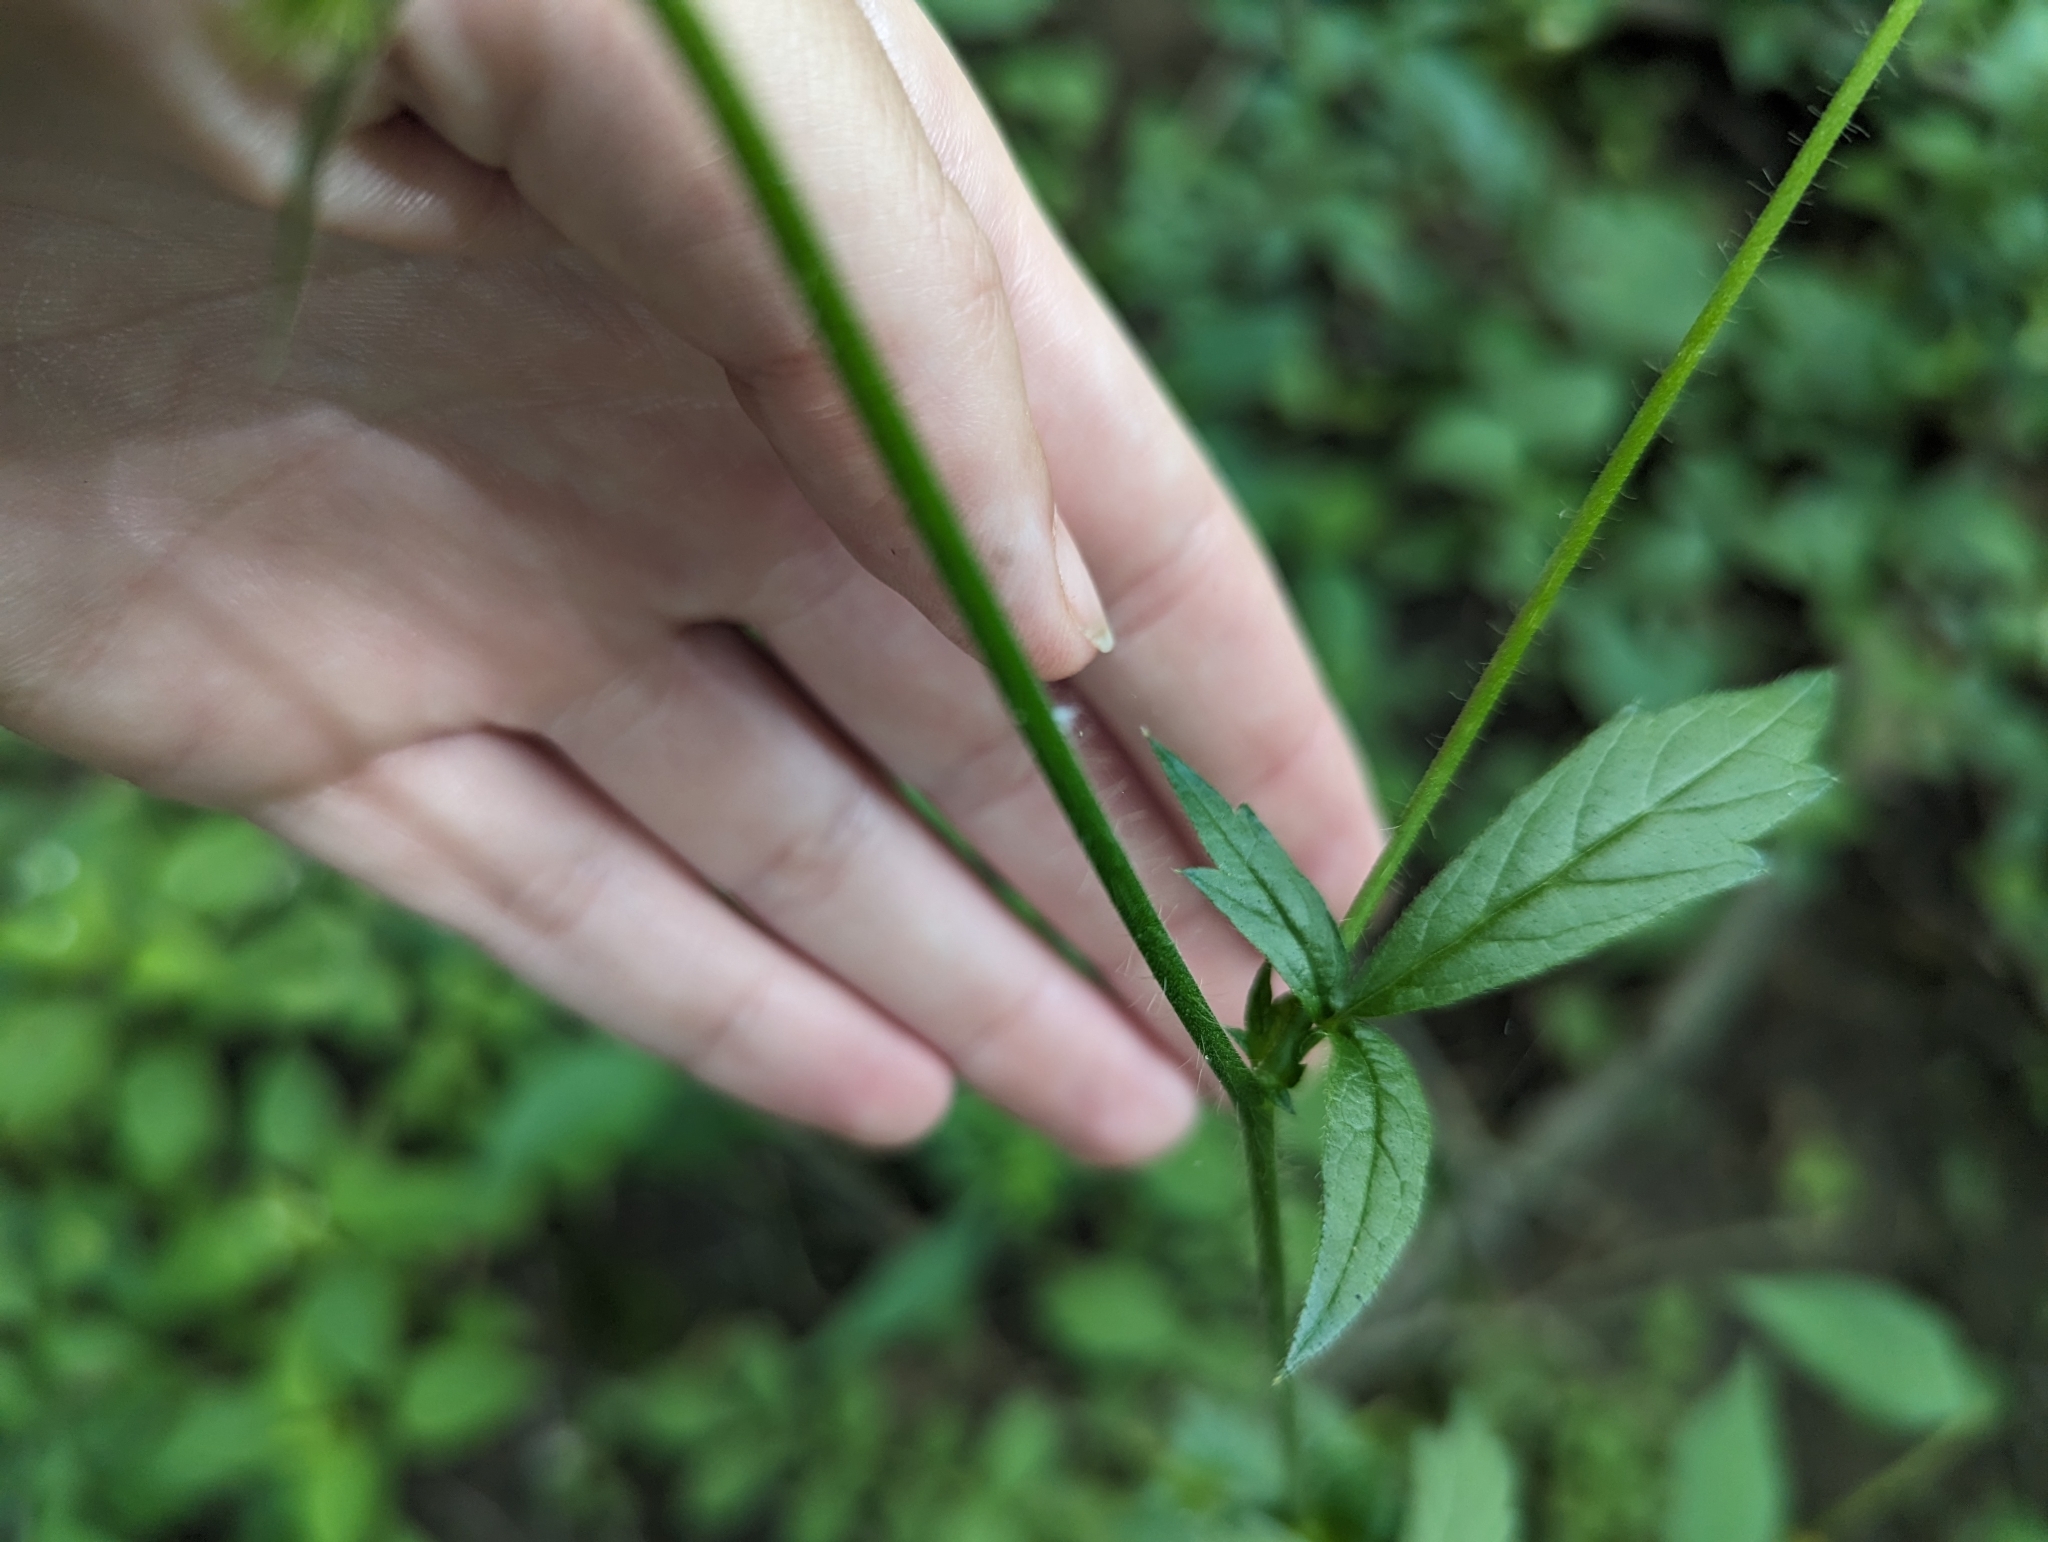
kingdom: Plantae
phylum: Tracheophyta
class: Magnoliopsida
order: Rosales
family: Rosaceae
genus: Agrimonia
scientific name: Agrimonia gryposepala
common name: Common agrimony
